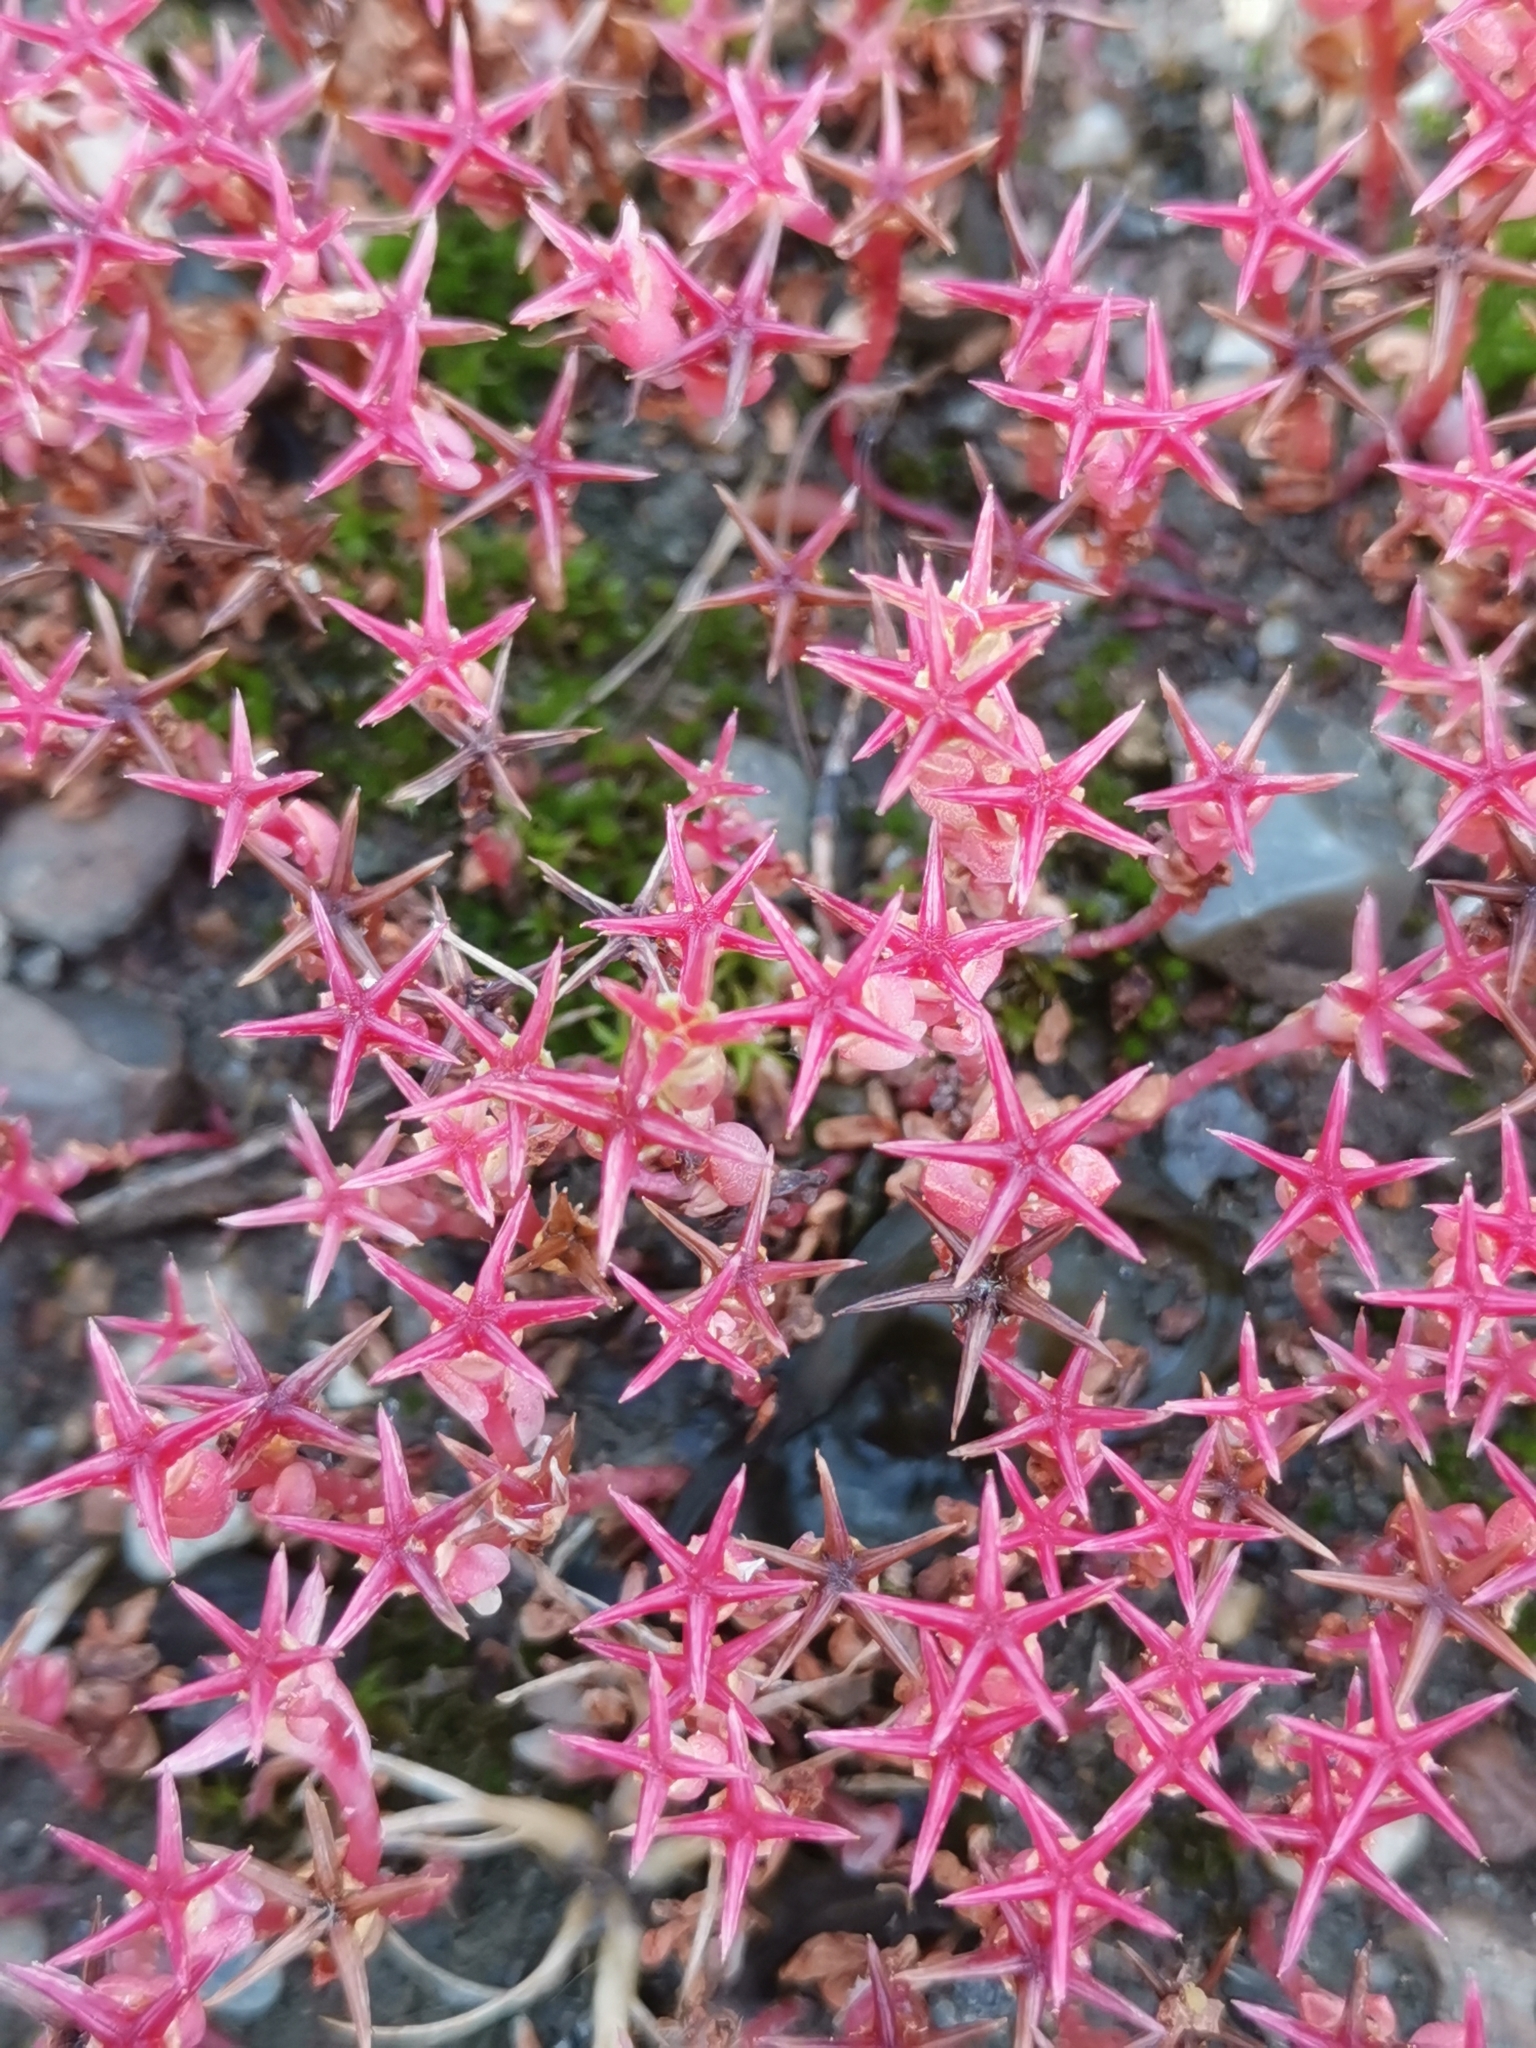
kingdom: Plantae
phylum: Tracheophyta
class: Magnoliopsida
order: Saxifragales
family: Crassulaceae
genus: Sedum
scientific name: Sedum cespitosum
